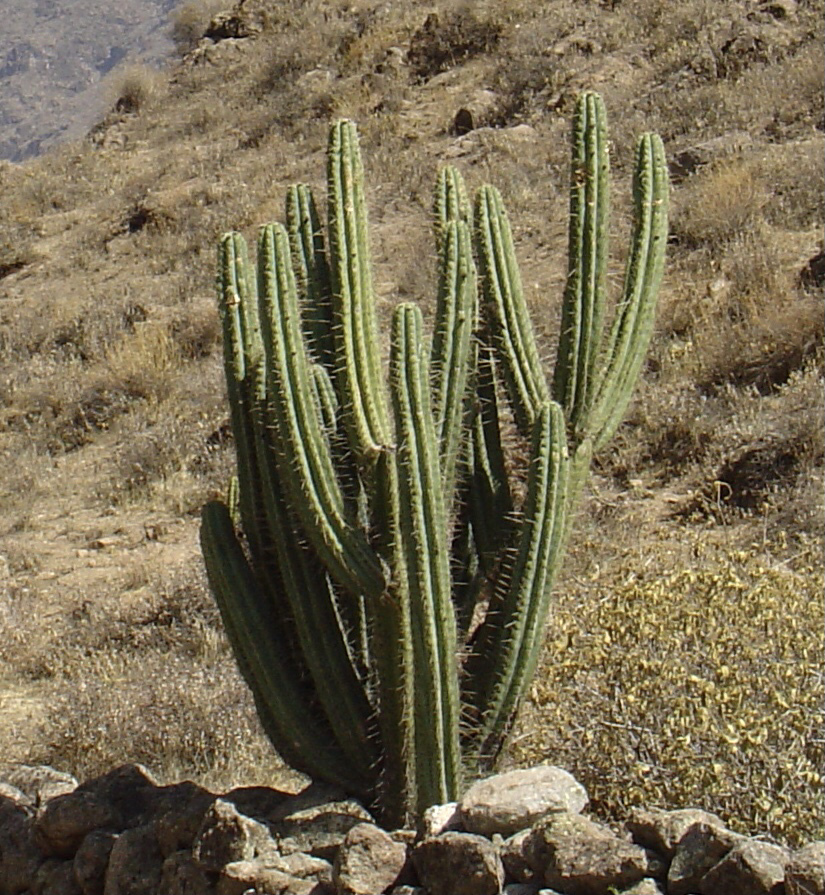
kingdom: Plantae
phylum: Tracheophyta
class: Magnoliopsida
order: Caryophyllales
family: Cactaceae
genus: Corryocactus
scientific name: Corryocactus brevistylus
